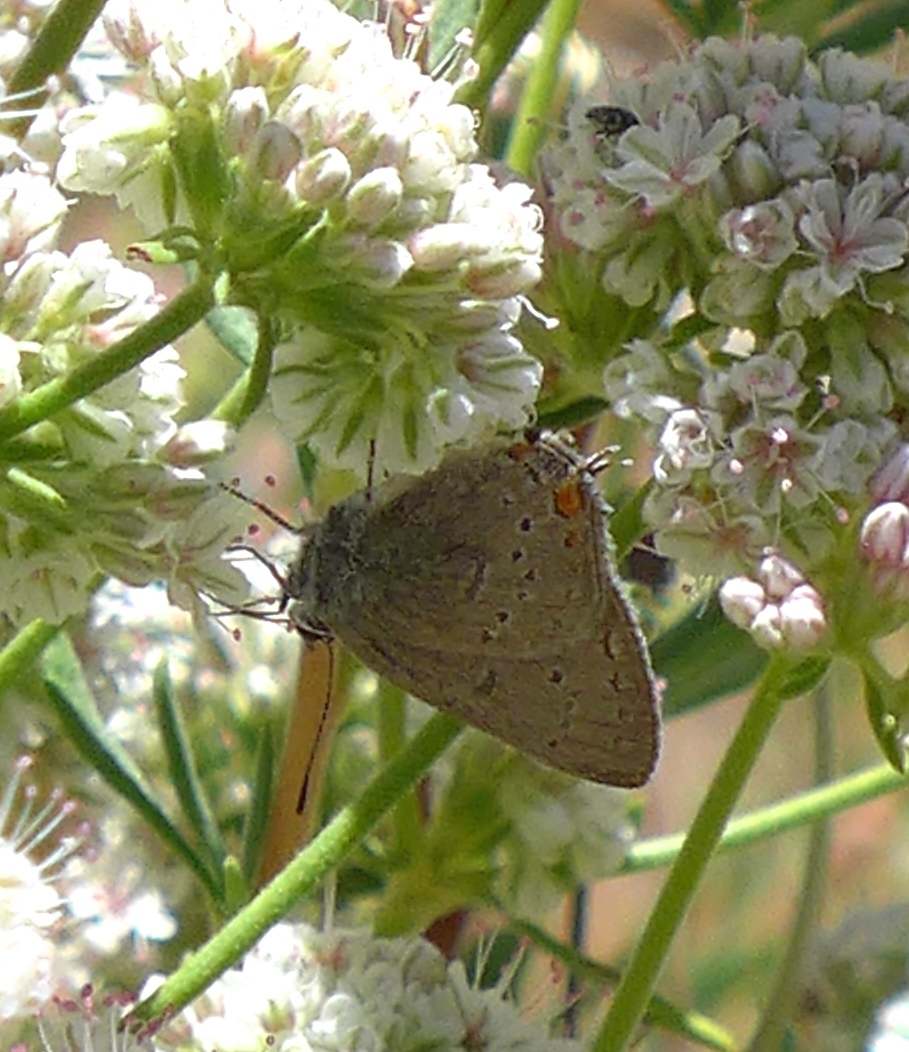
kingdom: Animalia
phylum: Arthropoda
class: Insecta
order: Lepidoptera
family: Lycaenidae
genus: Strymon
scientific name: Strymon acadica
